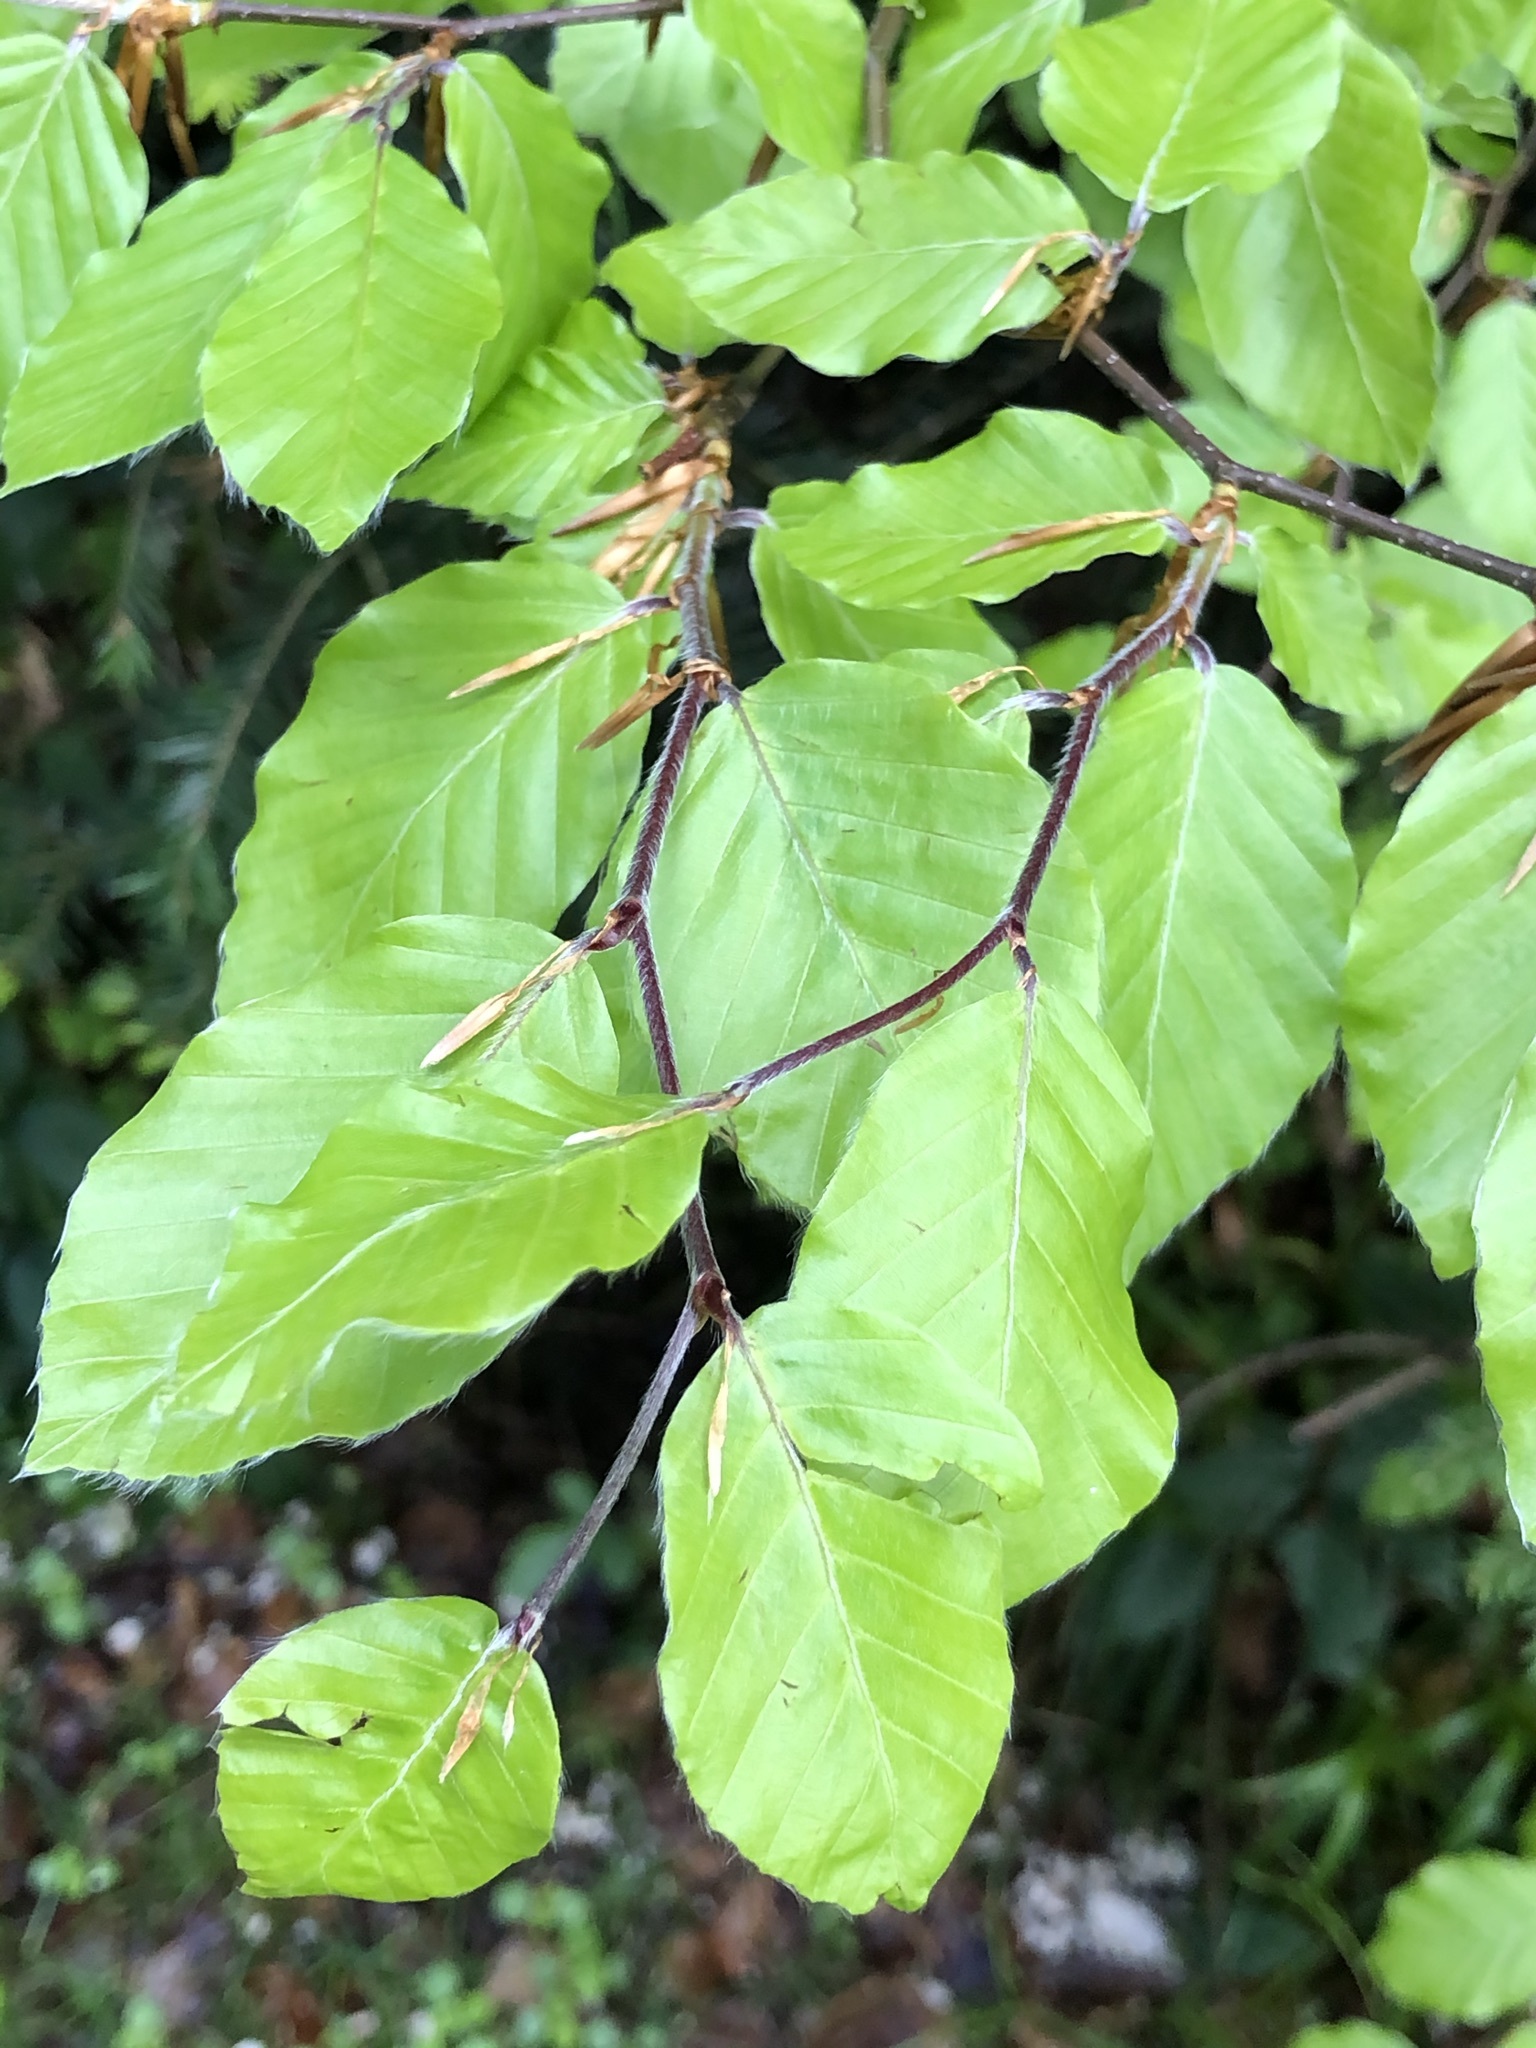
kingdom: Plantae
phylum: Tracheophyta
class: Magnoliopsida
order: Fagales
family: Fagaceae
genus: Fagus
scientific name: Fagus sylvatica
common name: Beech
